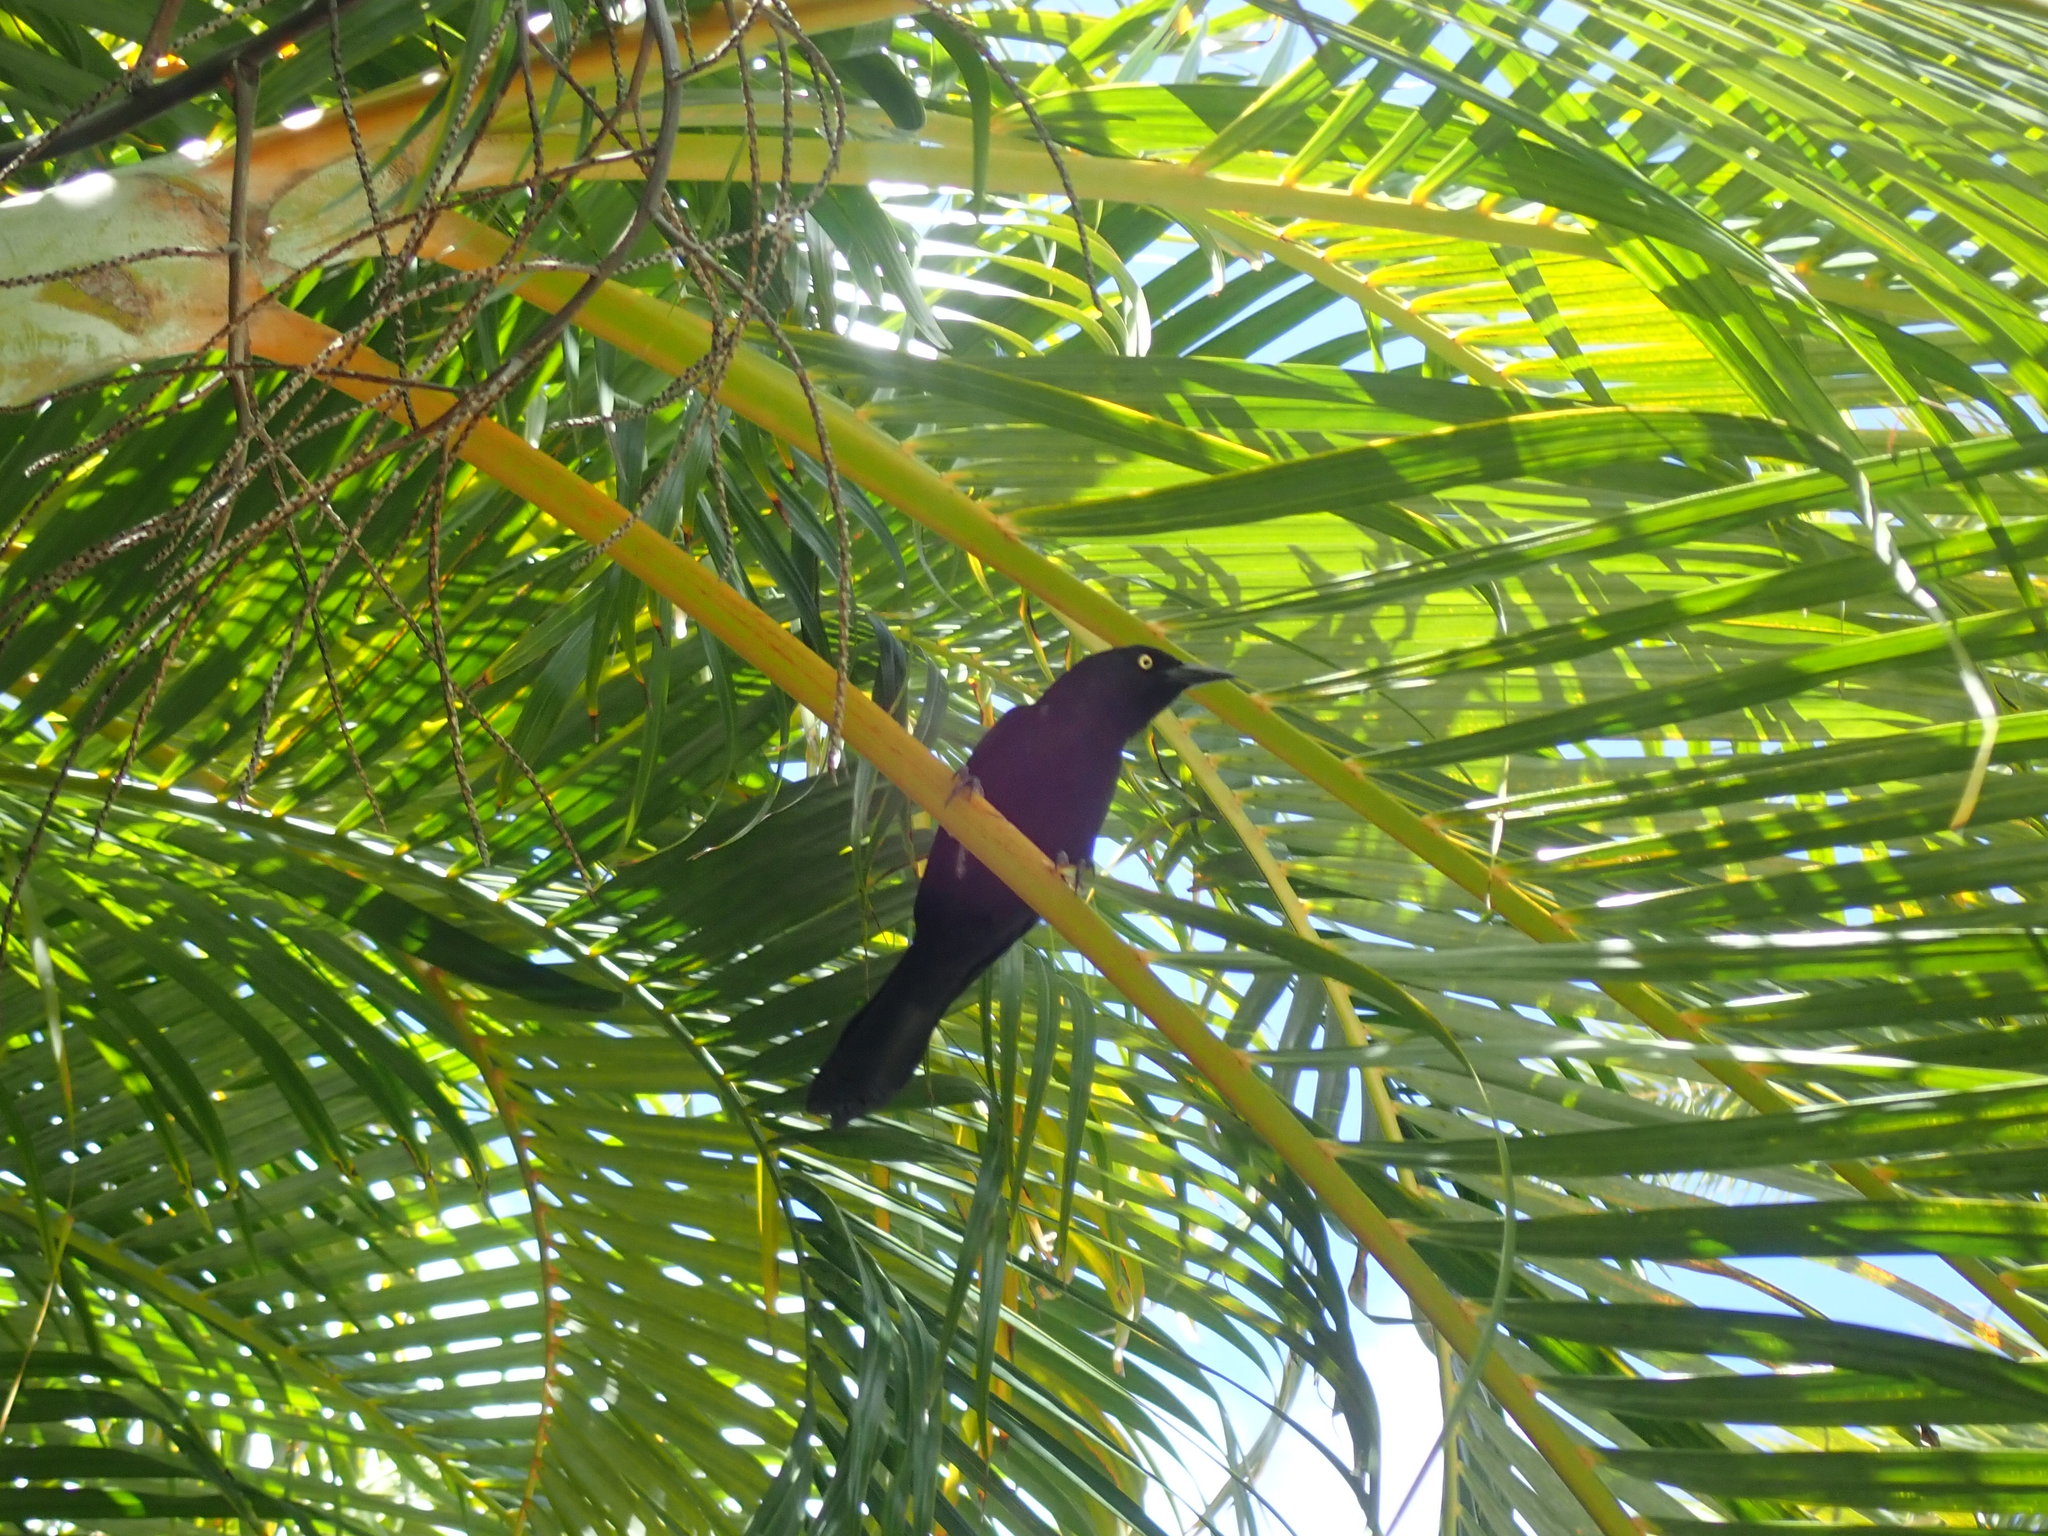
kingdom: Animalia
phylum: Chordata
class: Aves
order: Passeriformes
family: Icteridae
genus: Quiscalus
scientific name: Quiscalus lugubris
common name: Carib grackle
